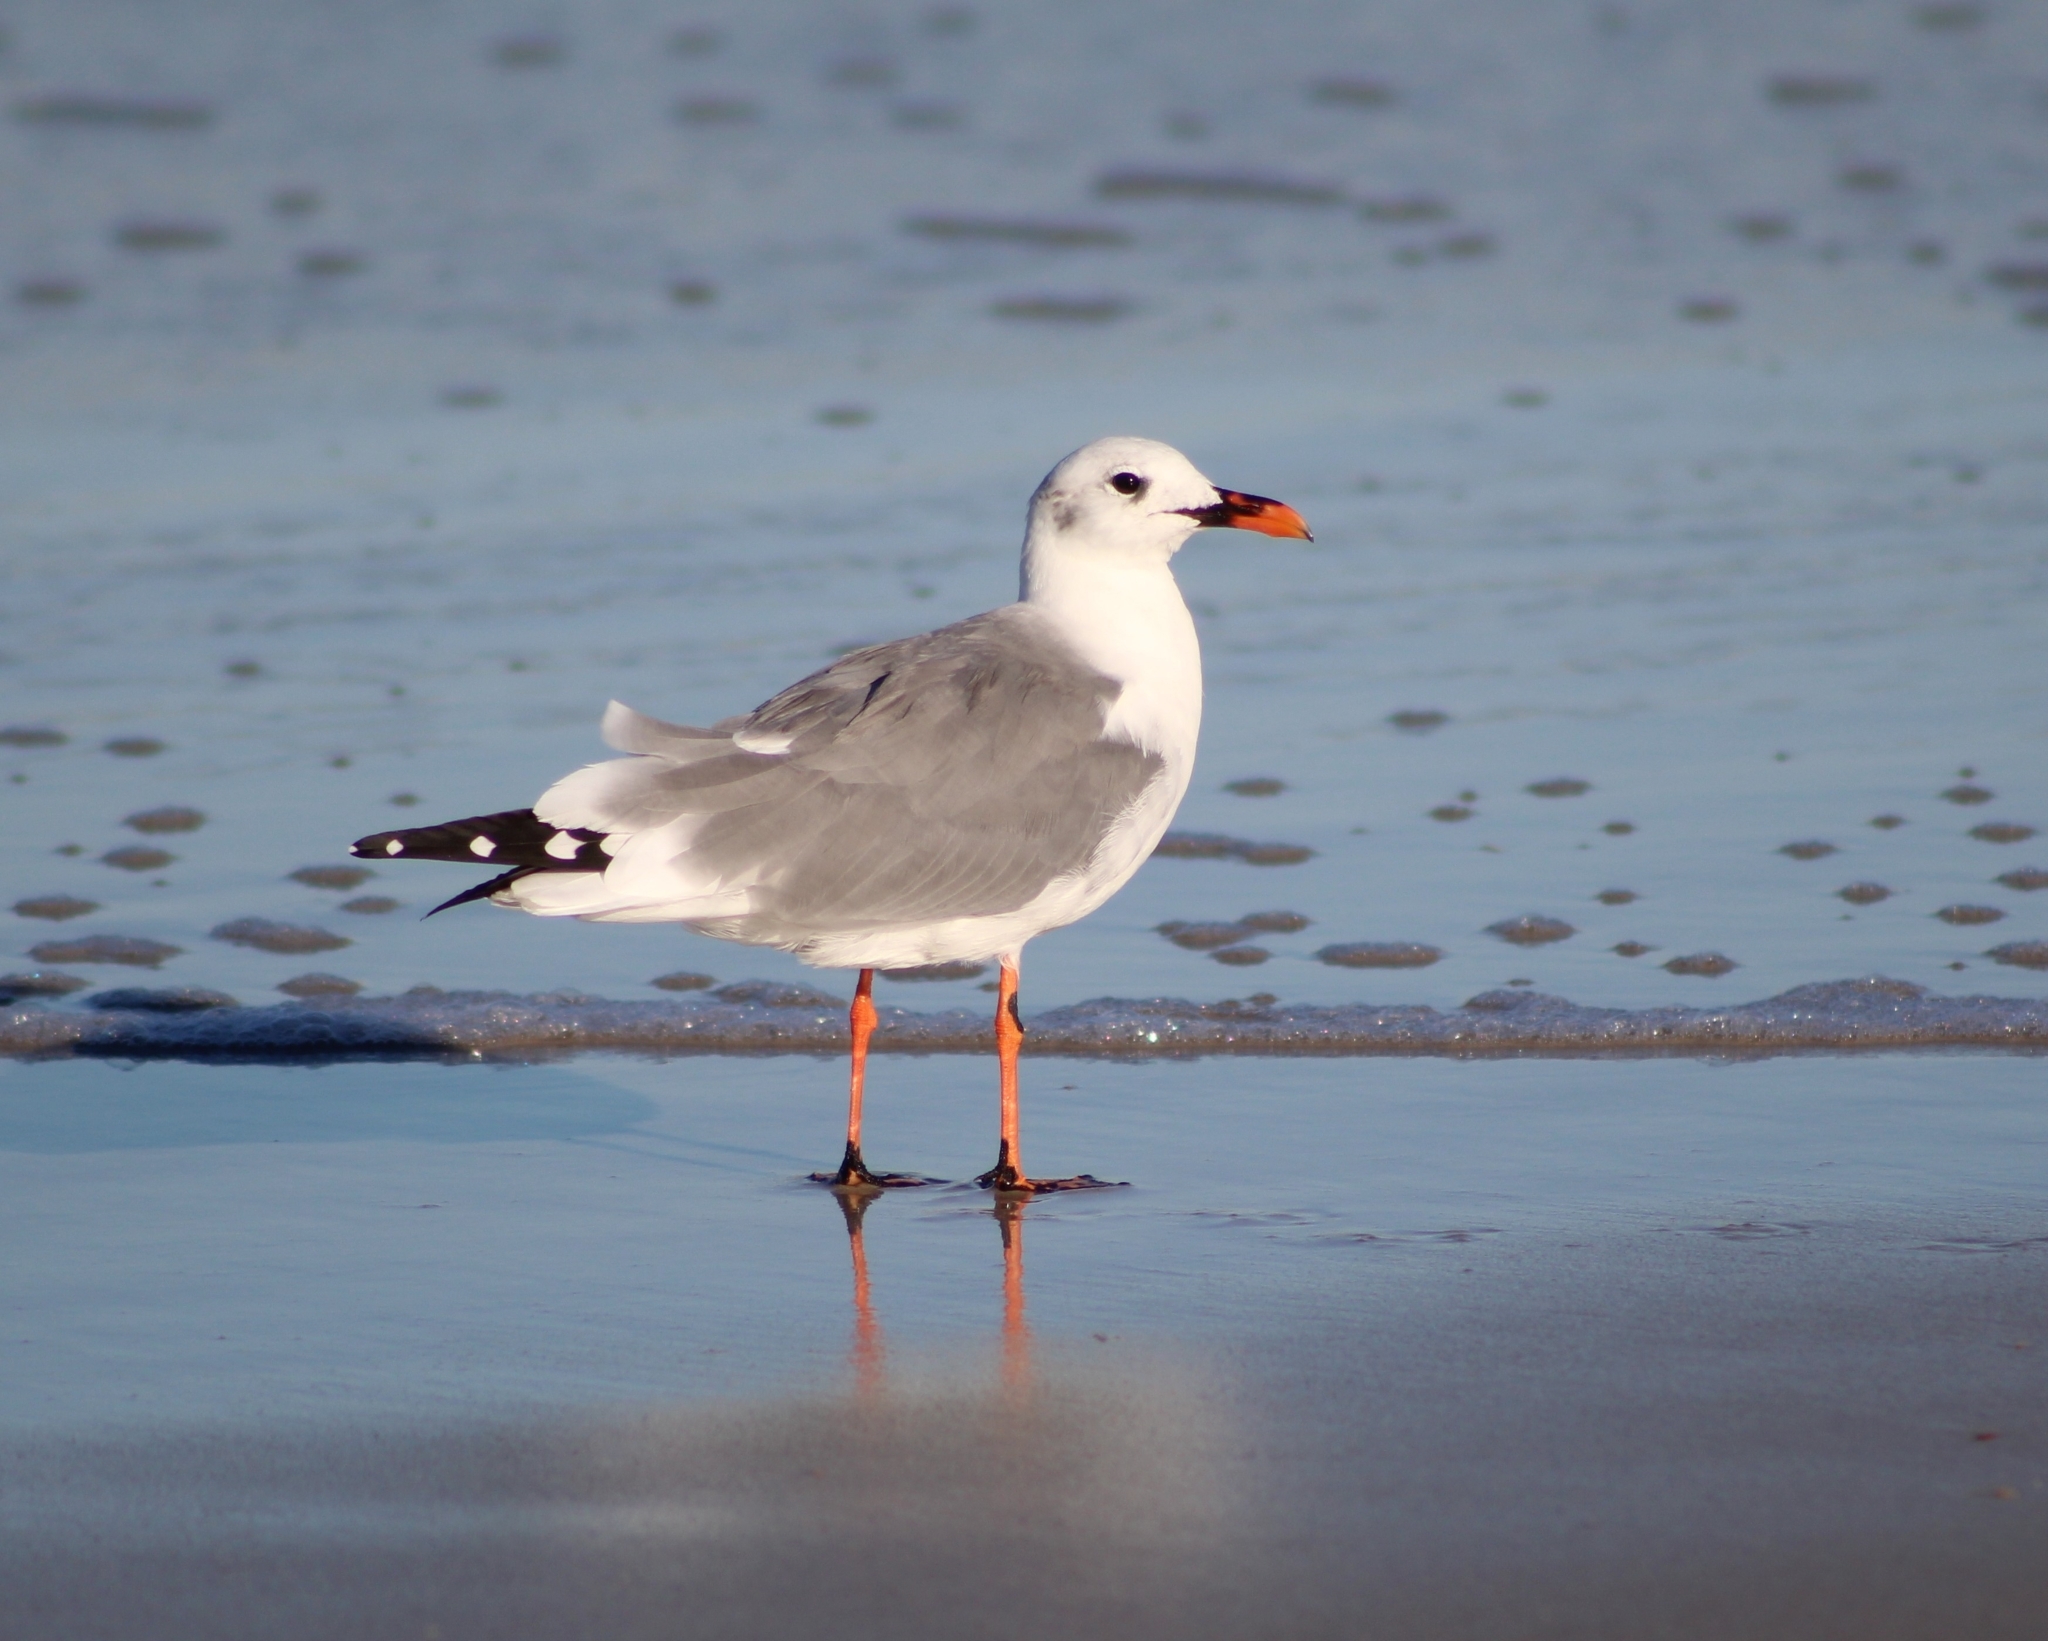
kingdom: Animalia
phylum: Chordata
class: Aves
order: Charadriiformes
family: Laridae
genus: Leucophaeus
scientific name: Leucophaeus atricilla
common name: Laughing gull
